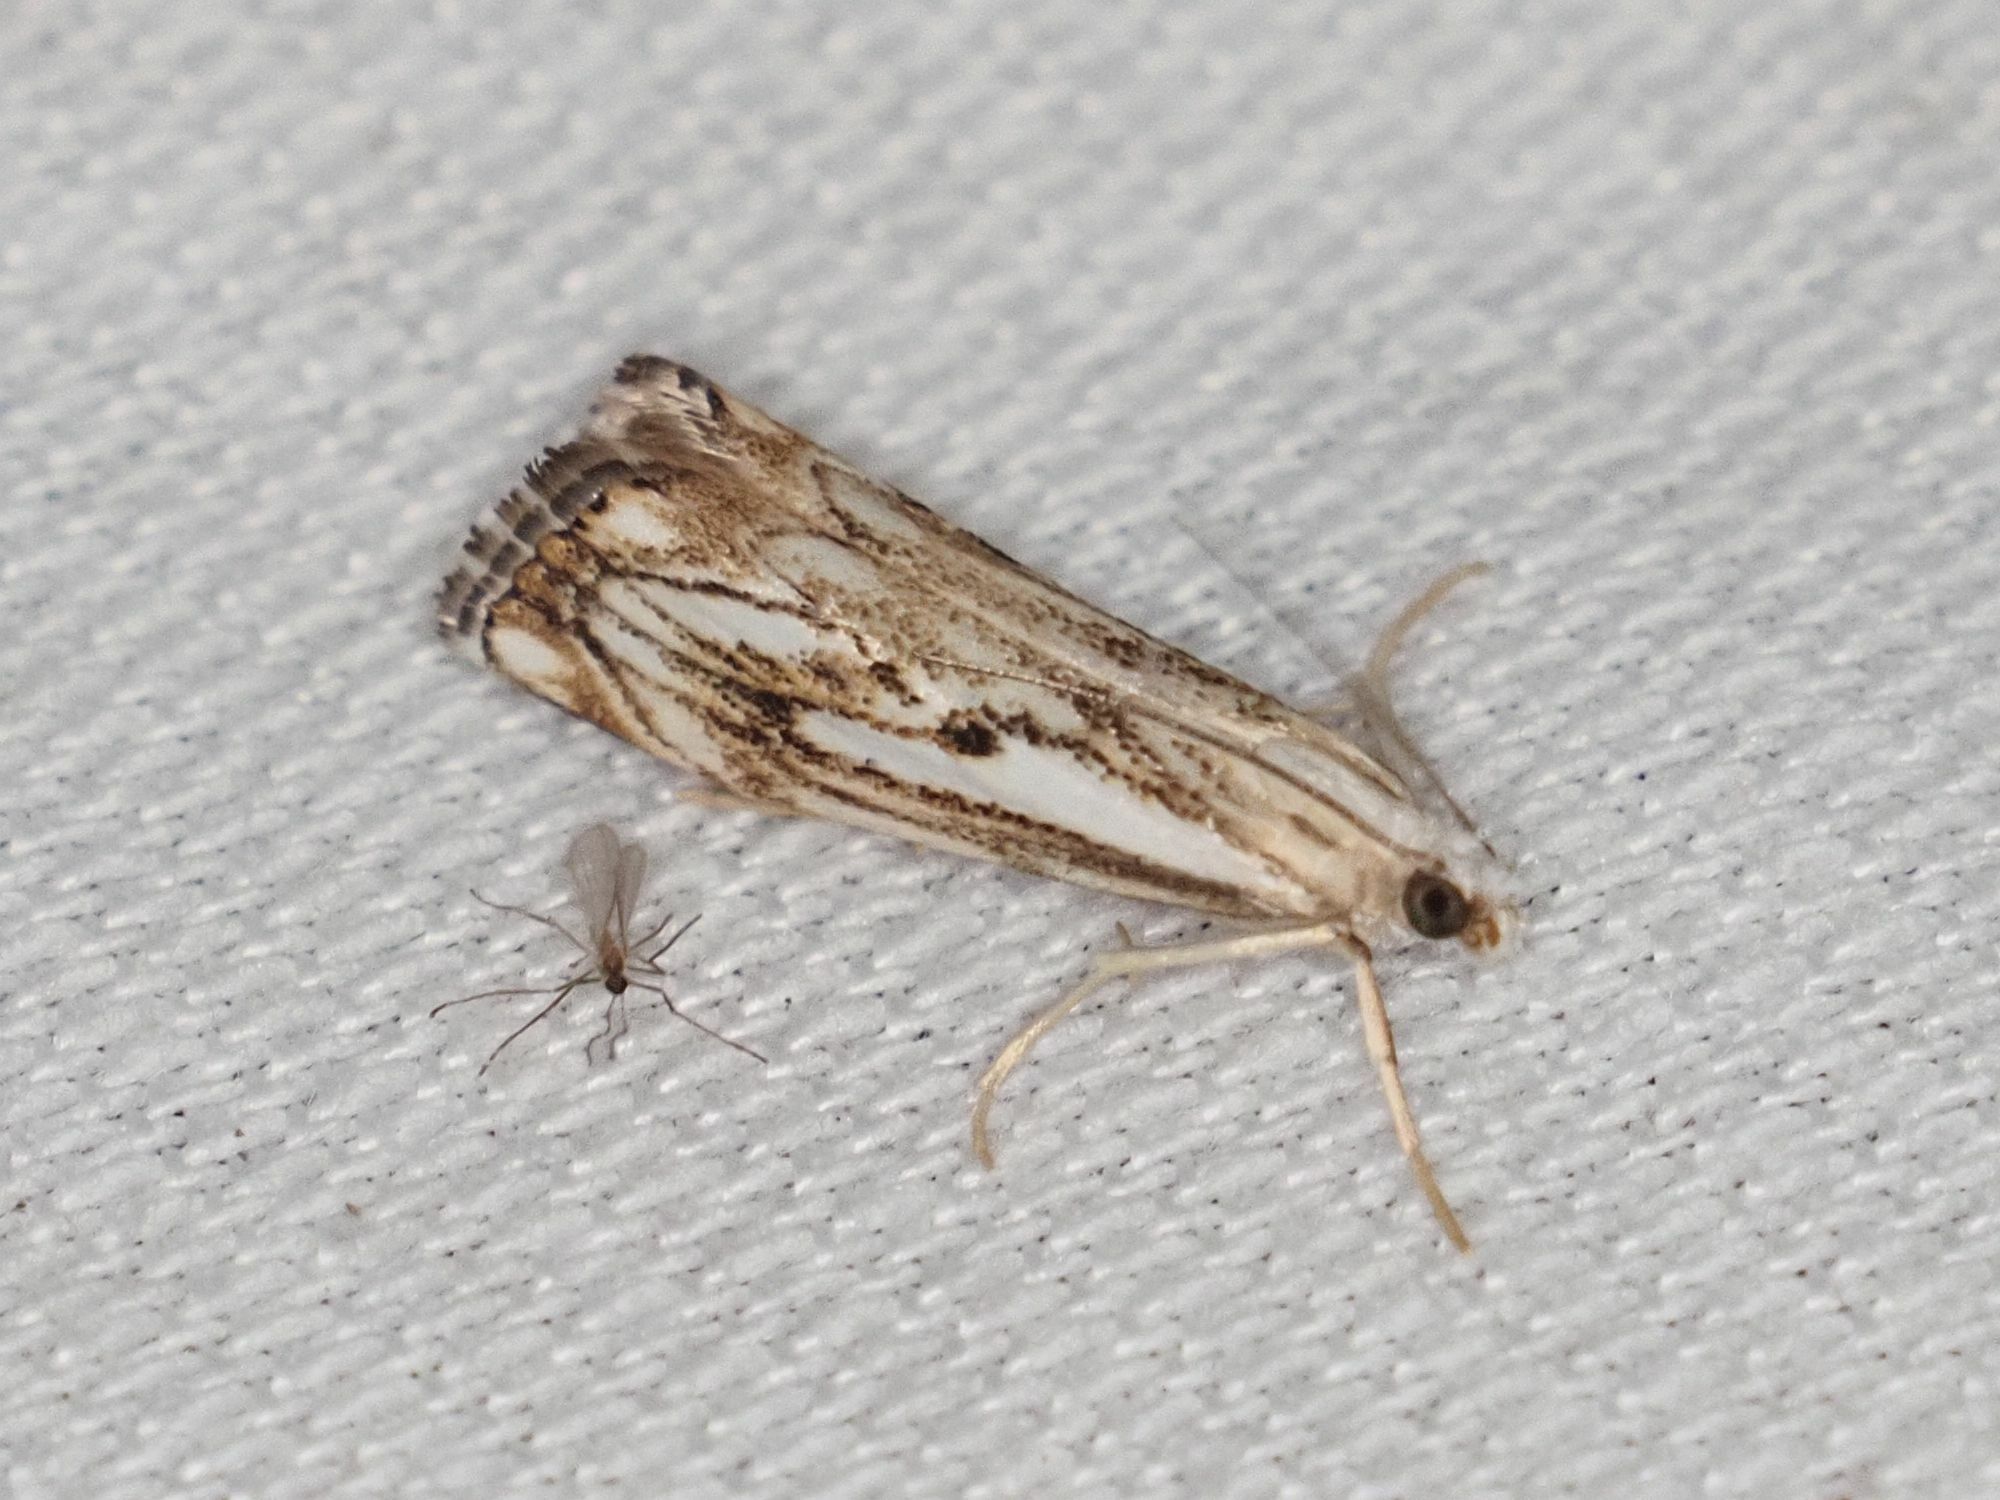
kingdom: Animalia
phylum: Arthropoda
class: Insecta
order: Lepidoptera
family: Crambidae
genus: Catoptria
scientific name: Catoptria falsella
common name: Chequered grass-veneer
